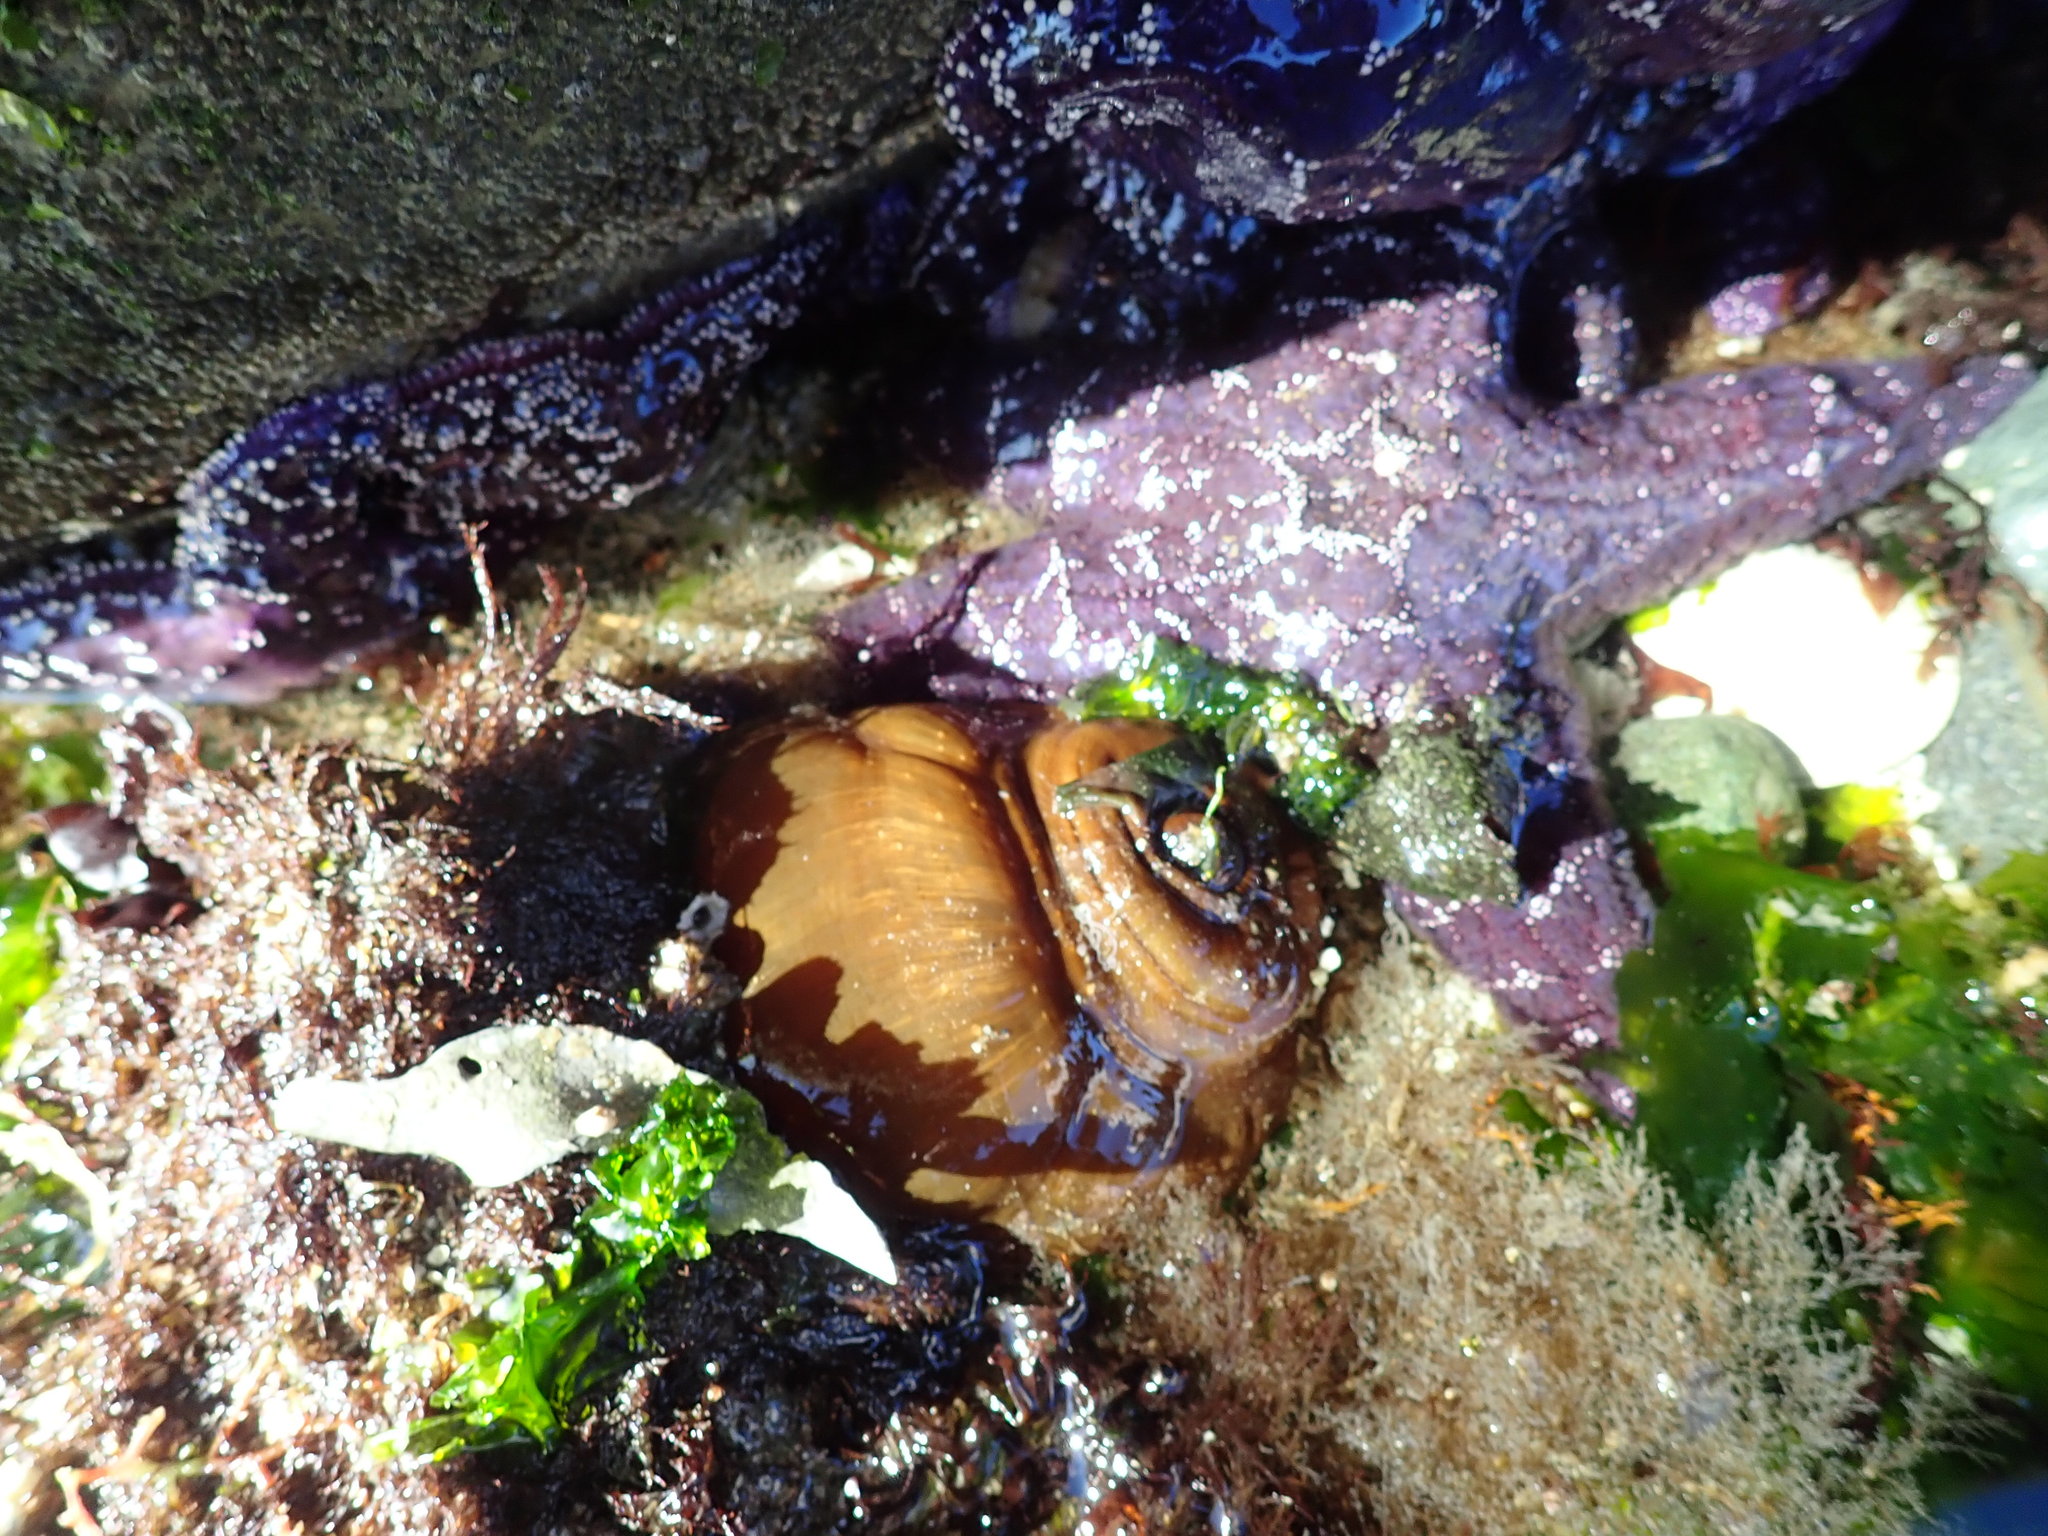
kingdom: Animalia
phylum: Cnidaria
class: Anthozoa
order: Actiniaria
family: Metridiidae
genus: Metridium
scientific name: Metridium farcimen
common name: Gigantic anemone
